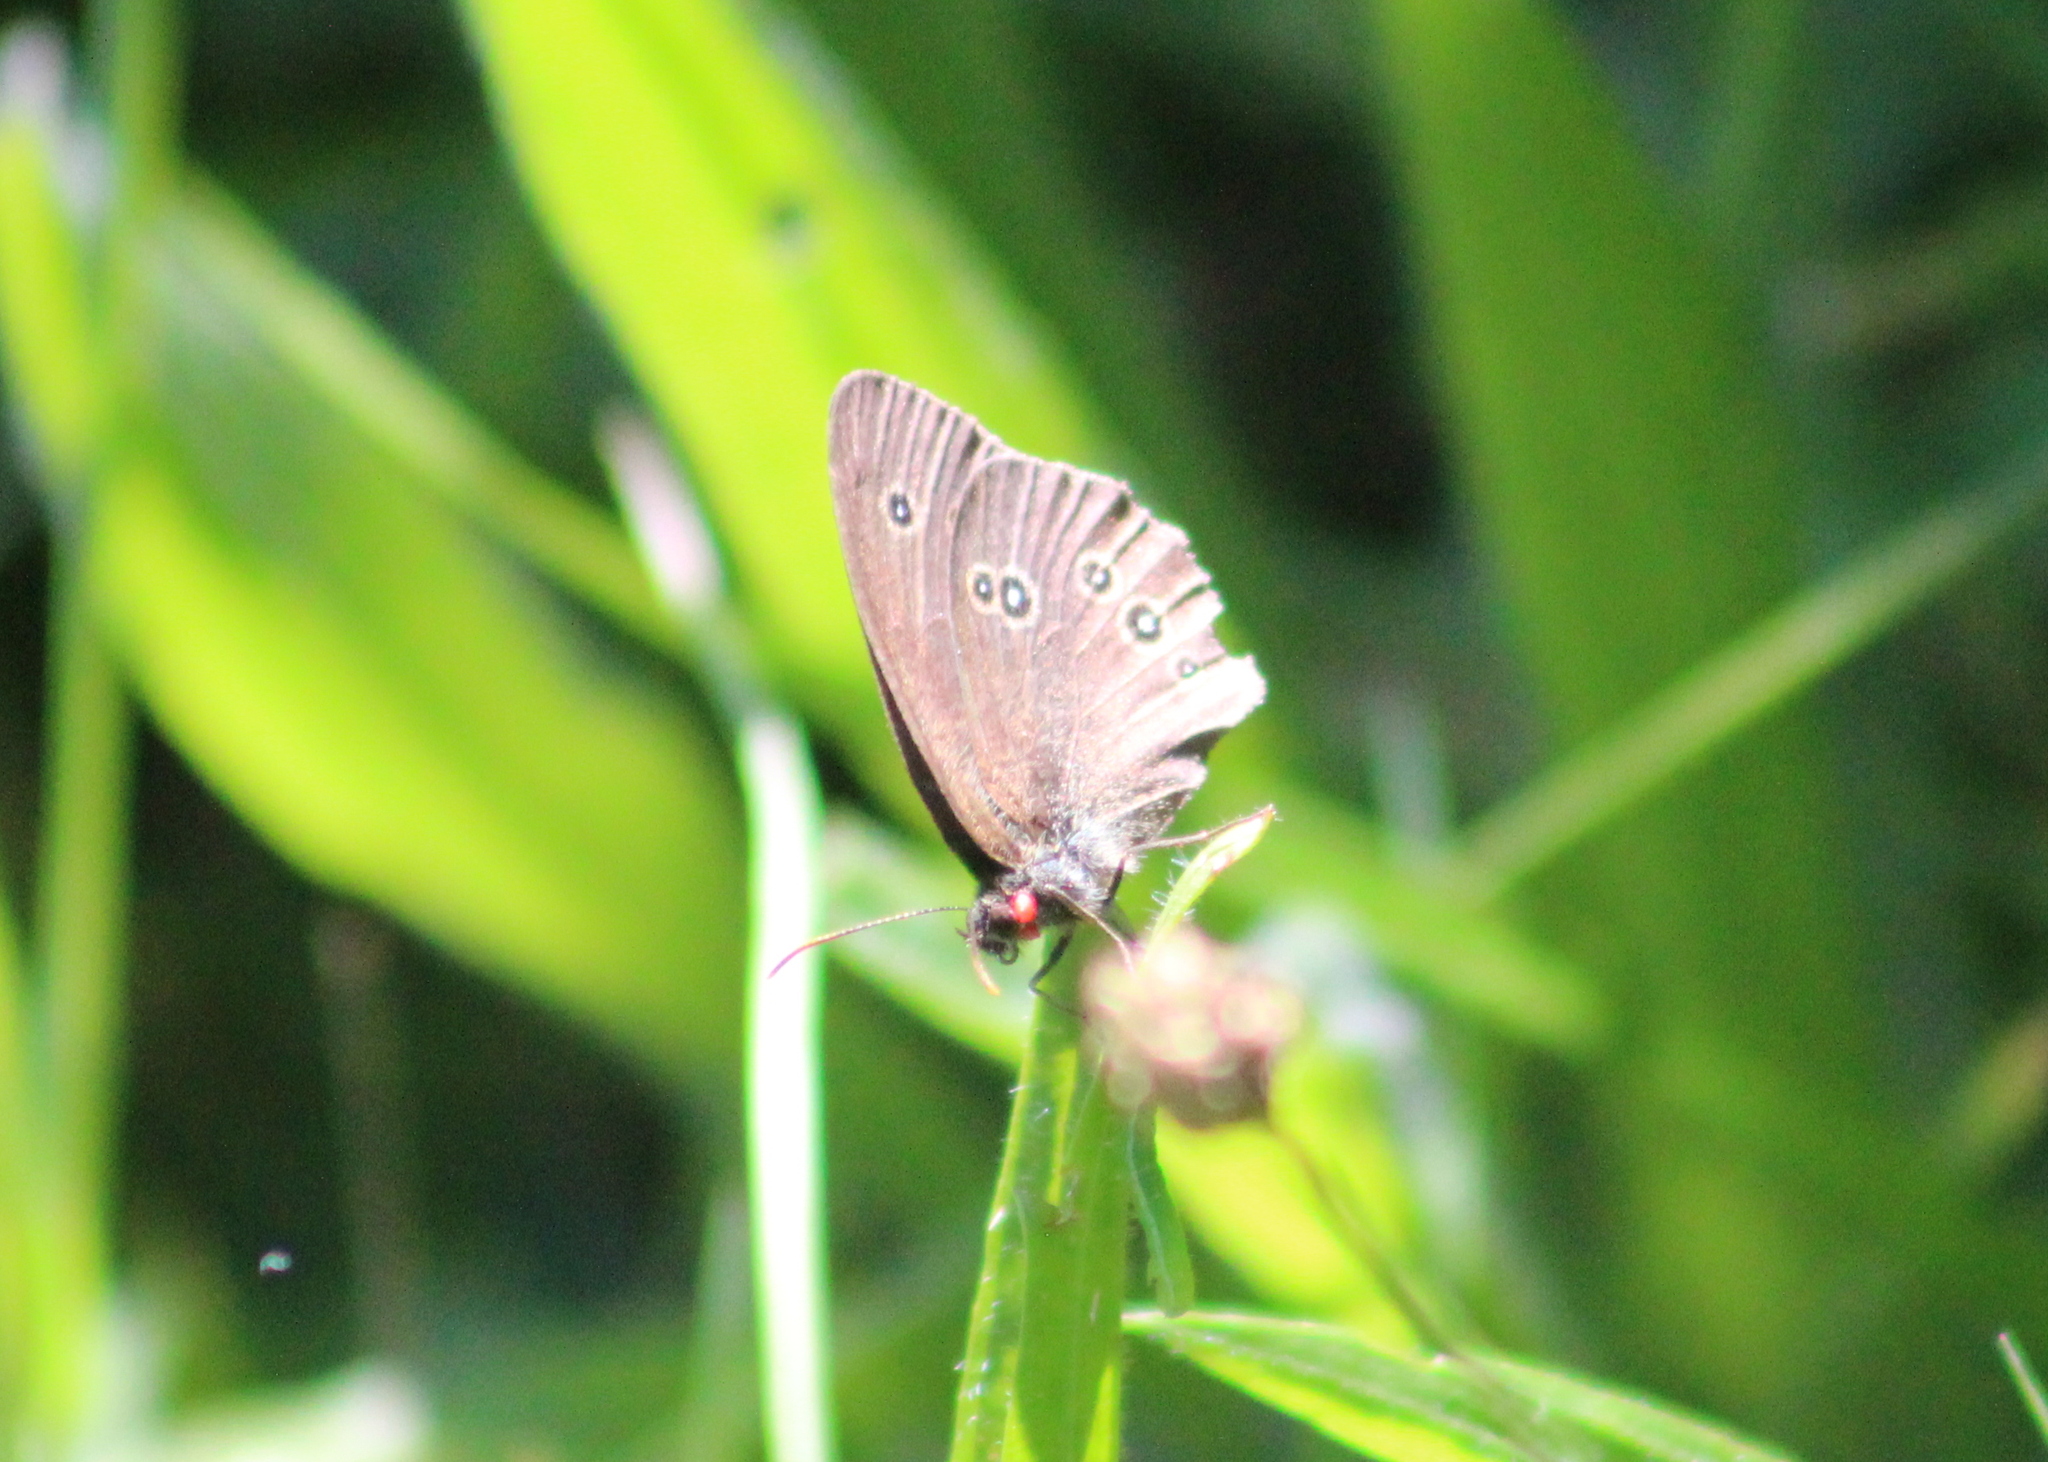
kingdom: Animalia
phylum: Arthropoda
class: Insecta
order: Lepidoptera
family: Nymphalidae
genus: Aphantopus
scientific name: Aphantopus hyperantus
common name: Ringlet
